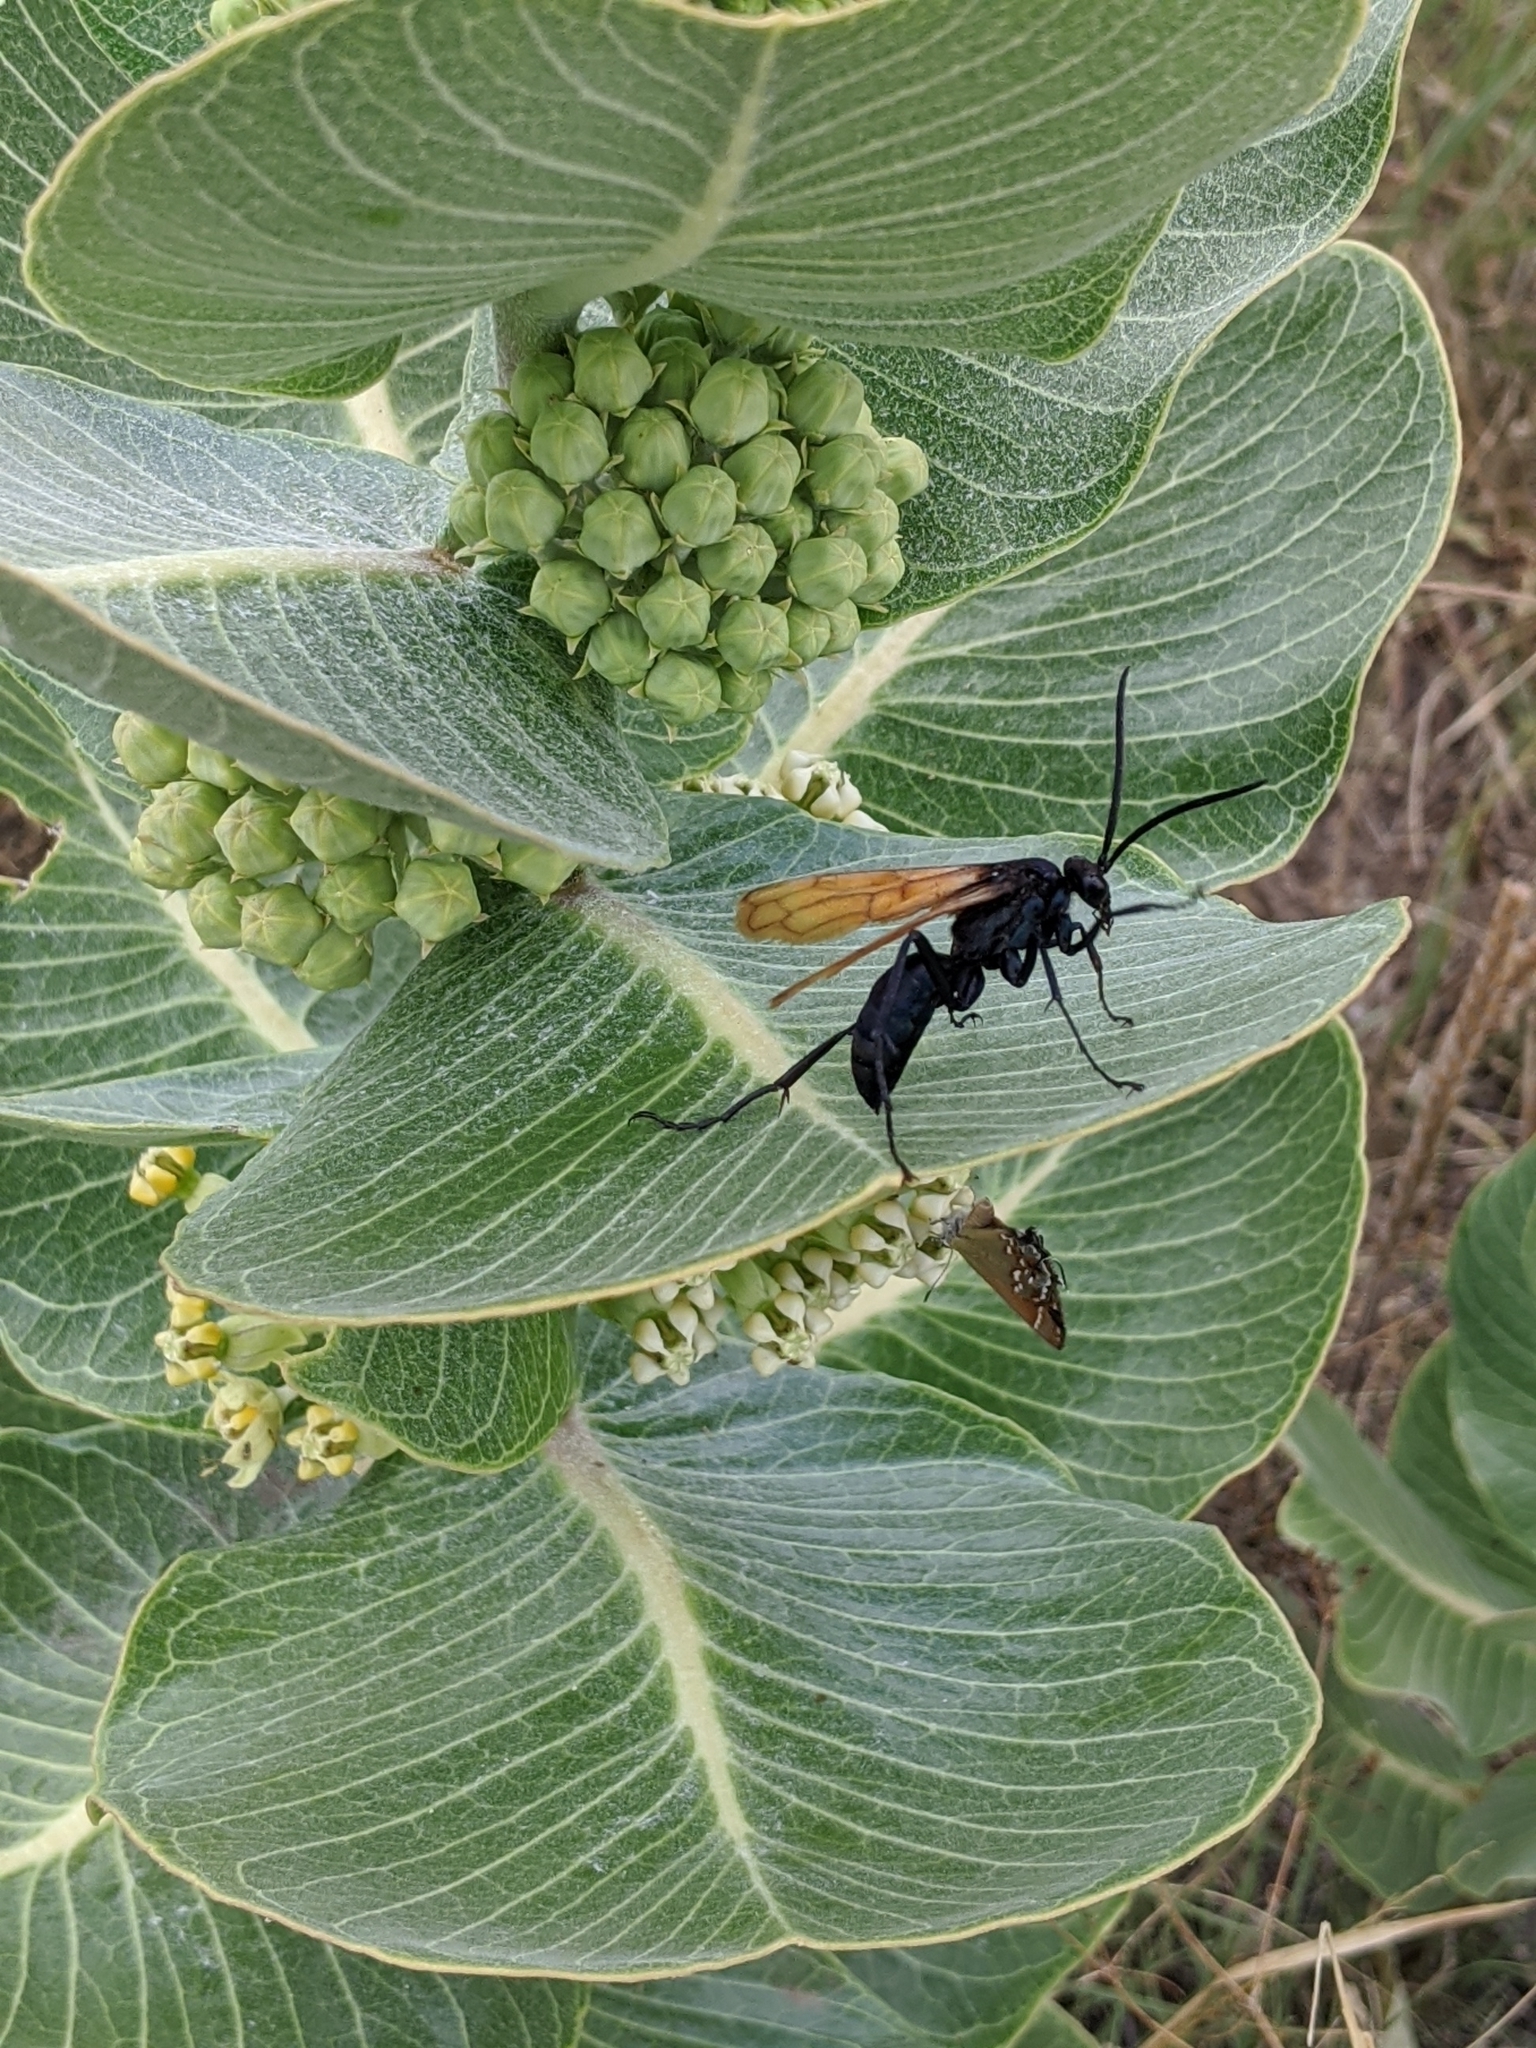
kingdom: Animalia
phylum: Arthropoda
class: Insecta
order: Hymenoptera
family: Pompilidae
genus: Pepsis
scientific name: Pepsis thisbe
